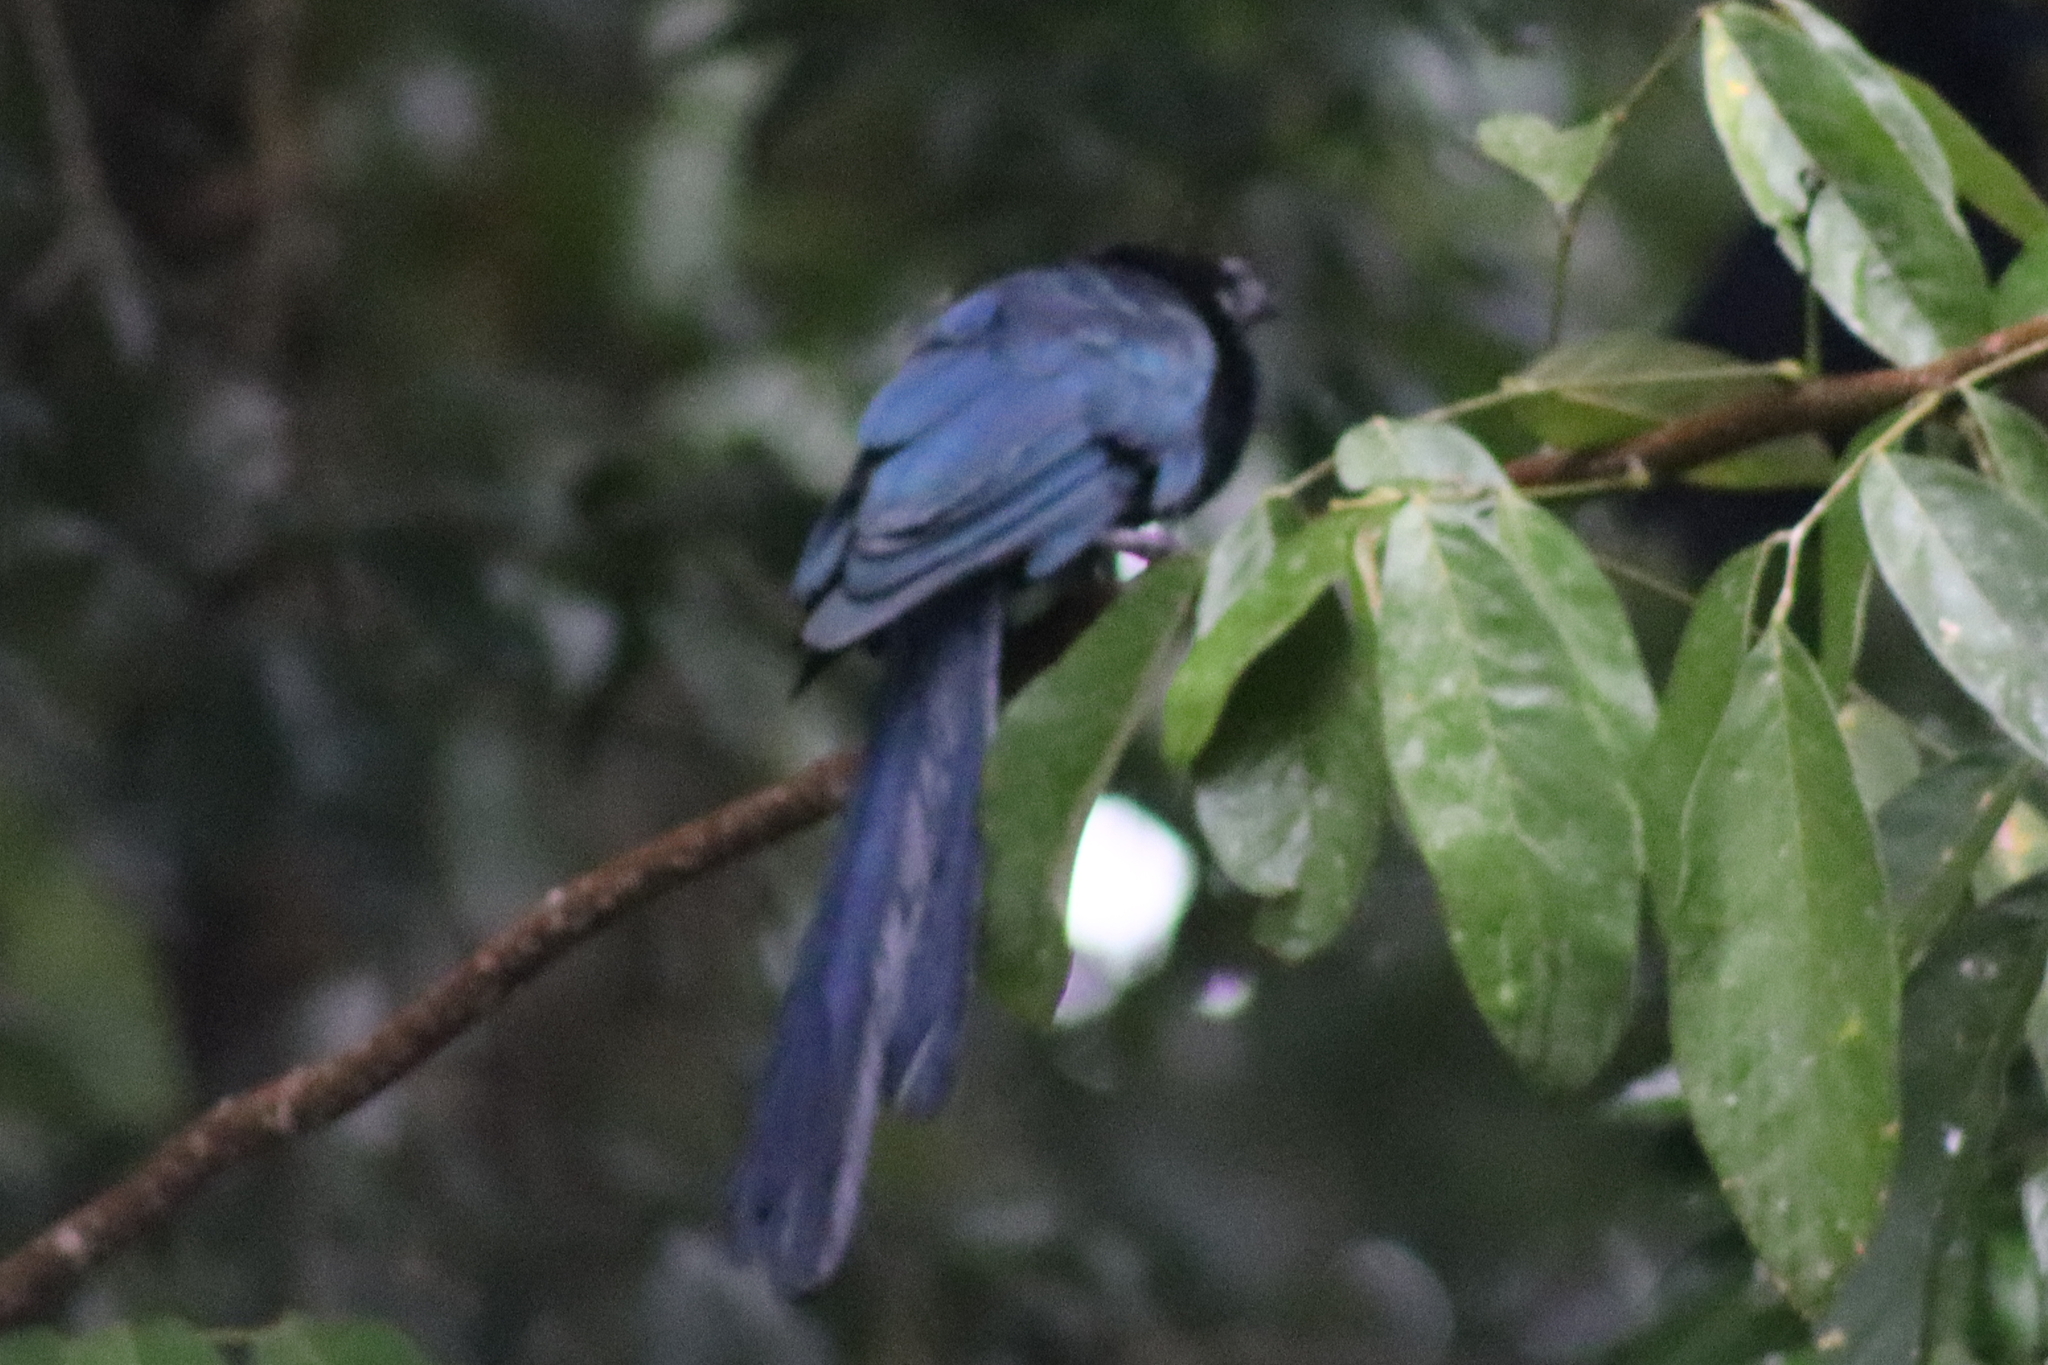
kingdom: Animalia
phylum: Chordata
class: Aves
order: Cuculiformes
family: Cuculidae
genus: Crotophaga
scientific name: Crotophaga major
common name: Greater ani
